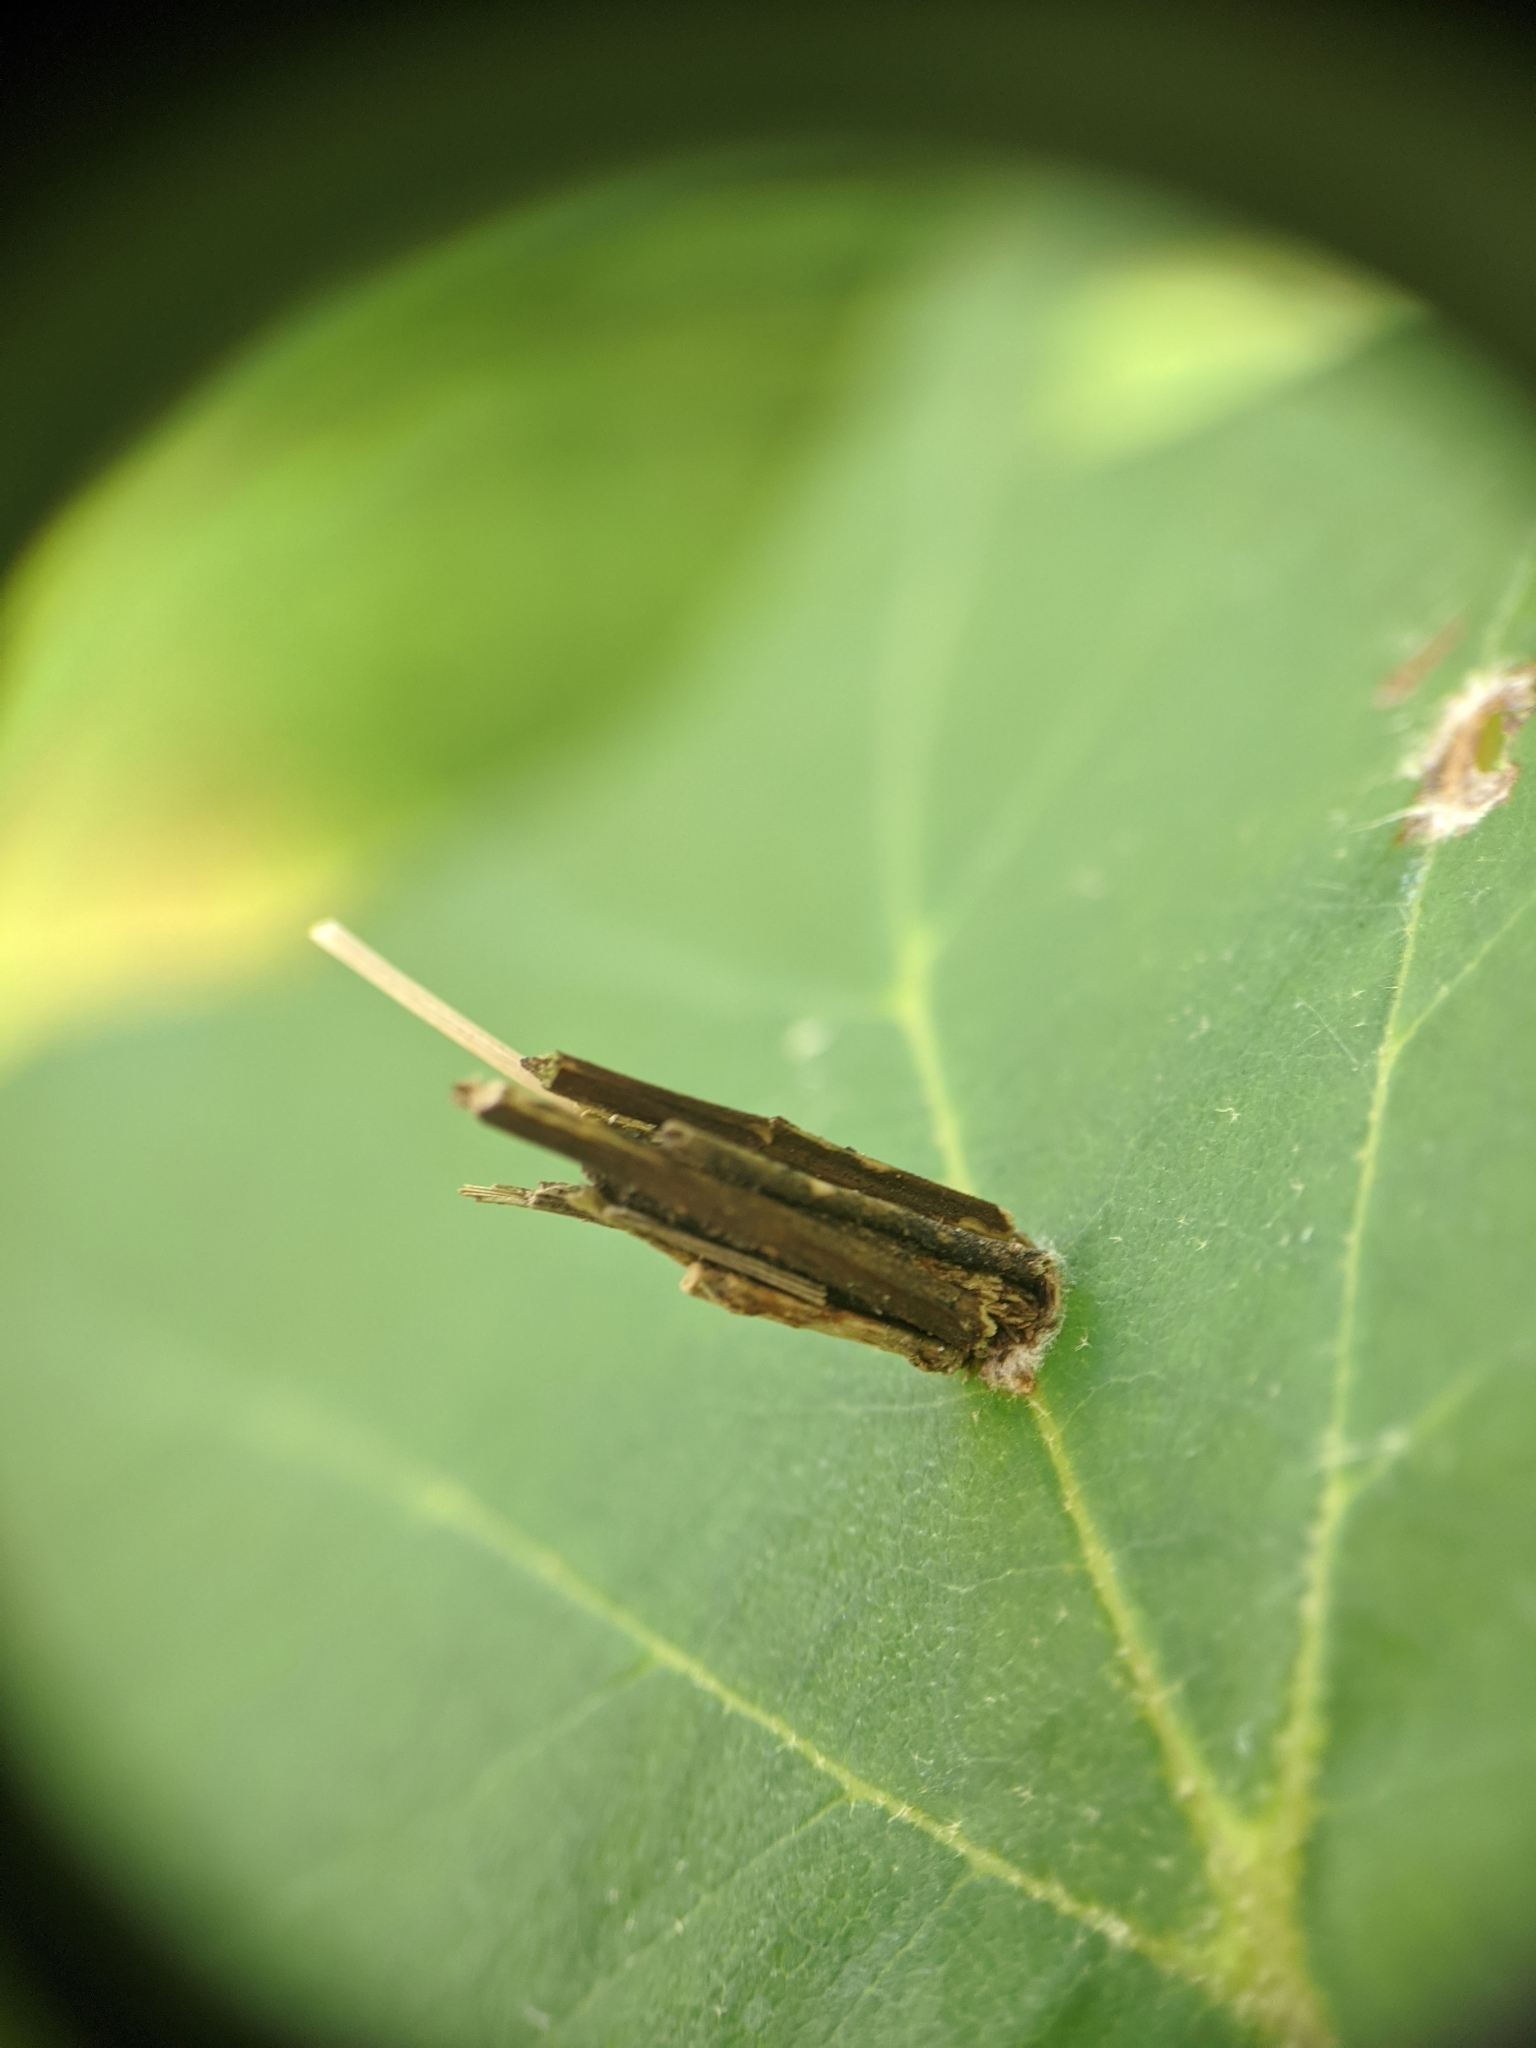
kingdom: Animalia
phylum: Arthropoda
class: Insecta
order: Lepidoptera
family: Psychidae
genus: Psyche
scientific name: Psyche casta
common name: Common sweep
